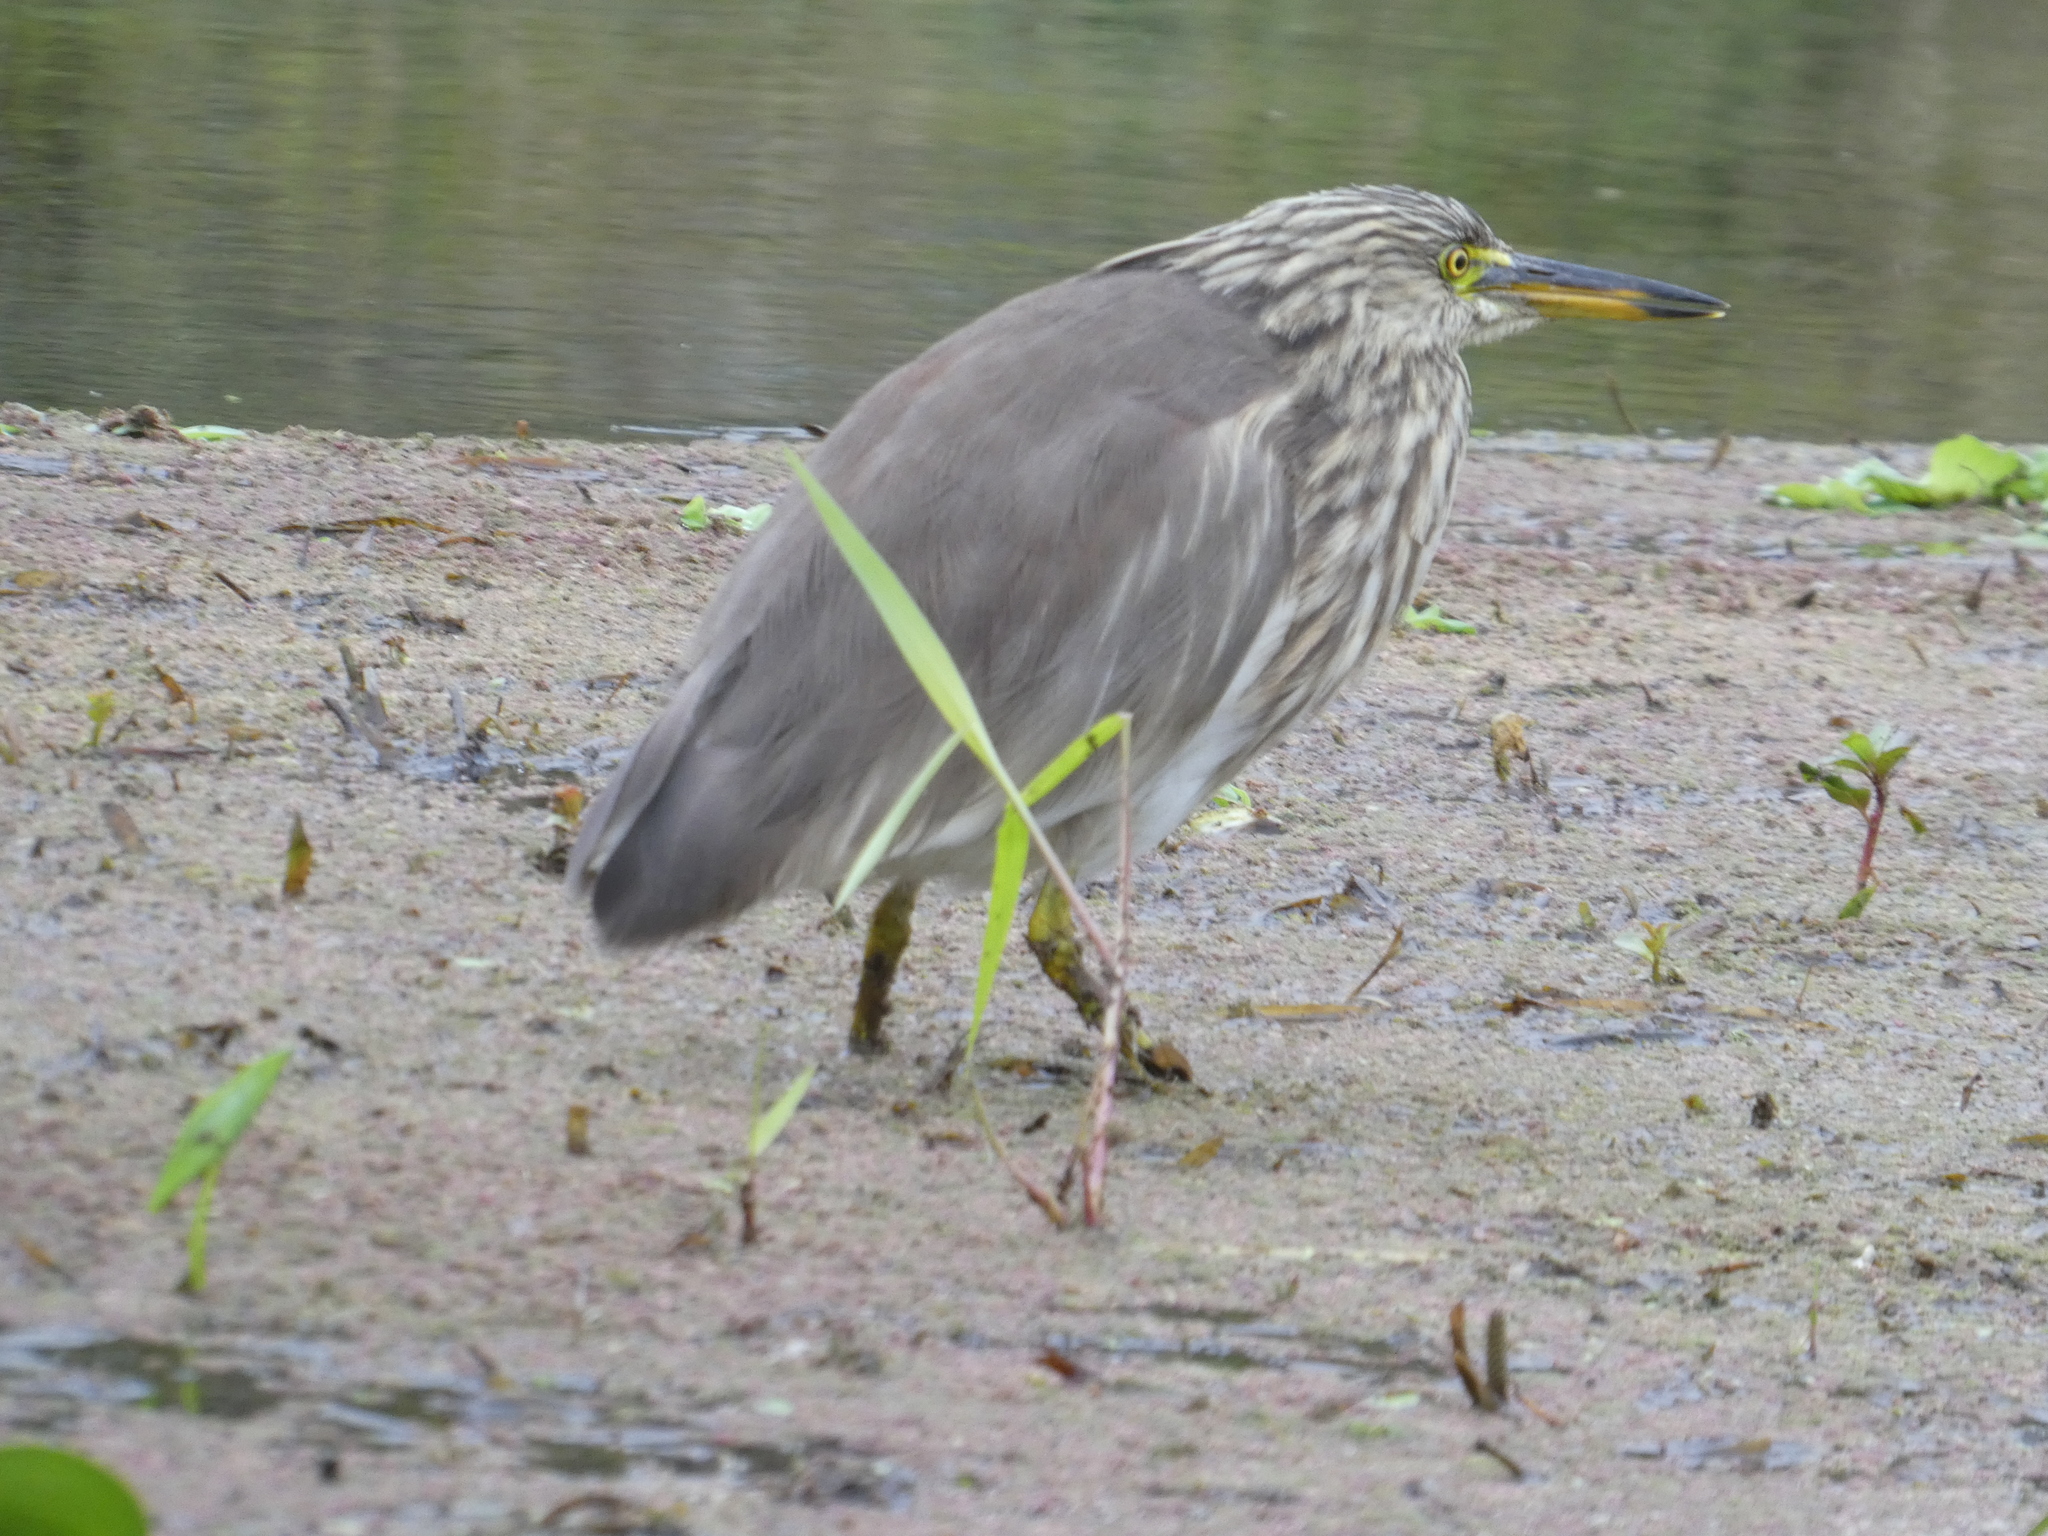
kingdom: Animalia
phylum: Chordata
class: Aves
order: Pelecaniformes
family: Ardeidae
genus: Ardeola
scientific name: Ardeola grayii
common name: Indian pond heron
